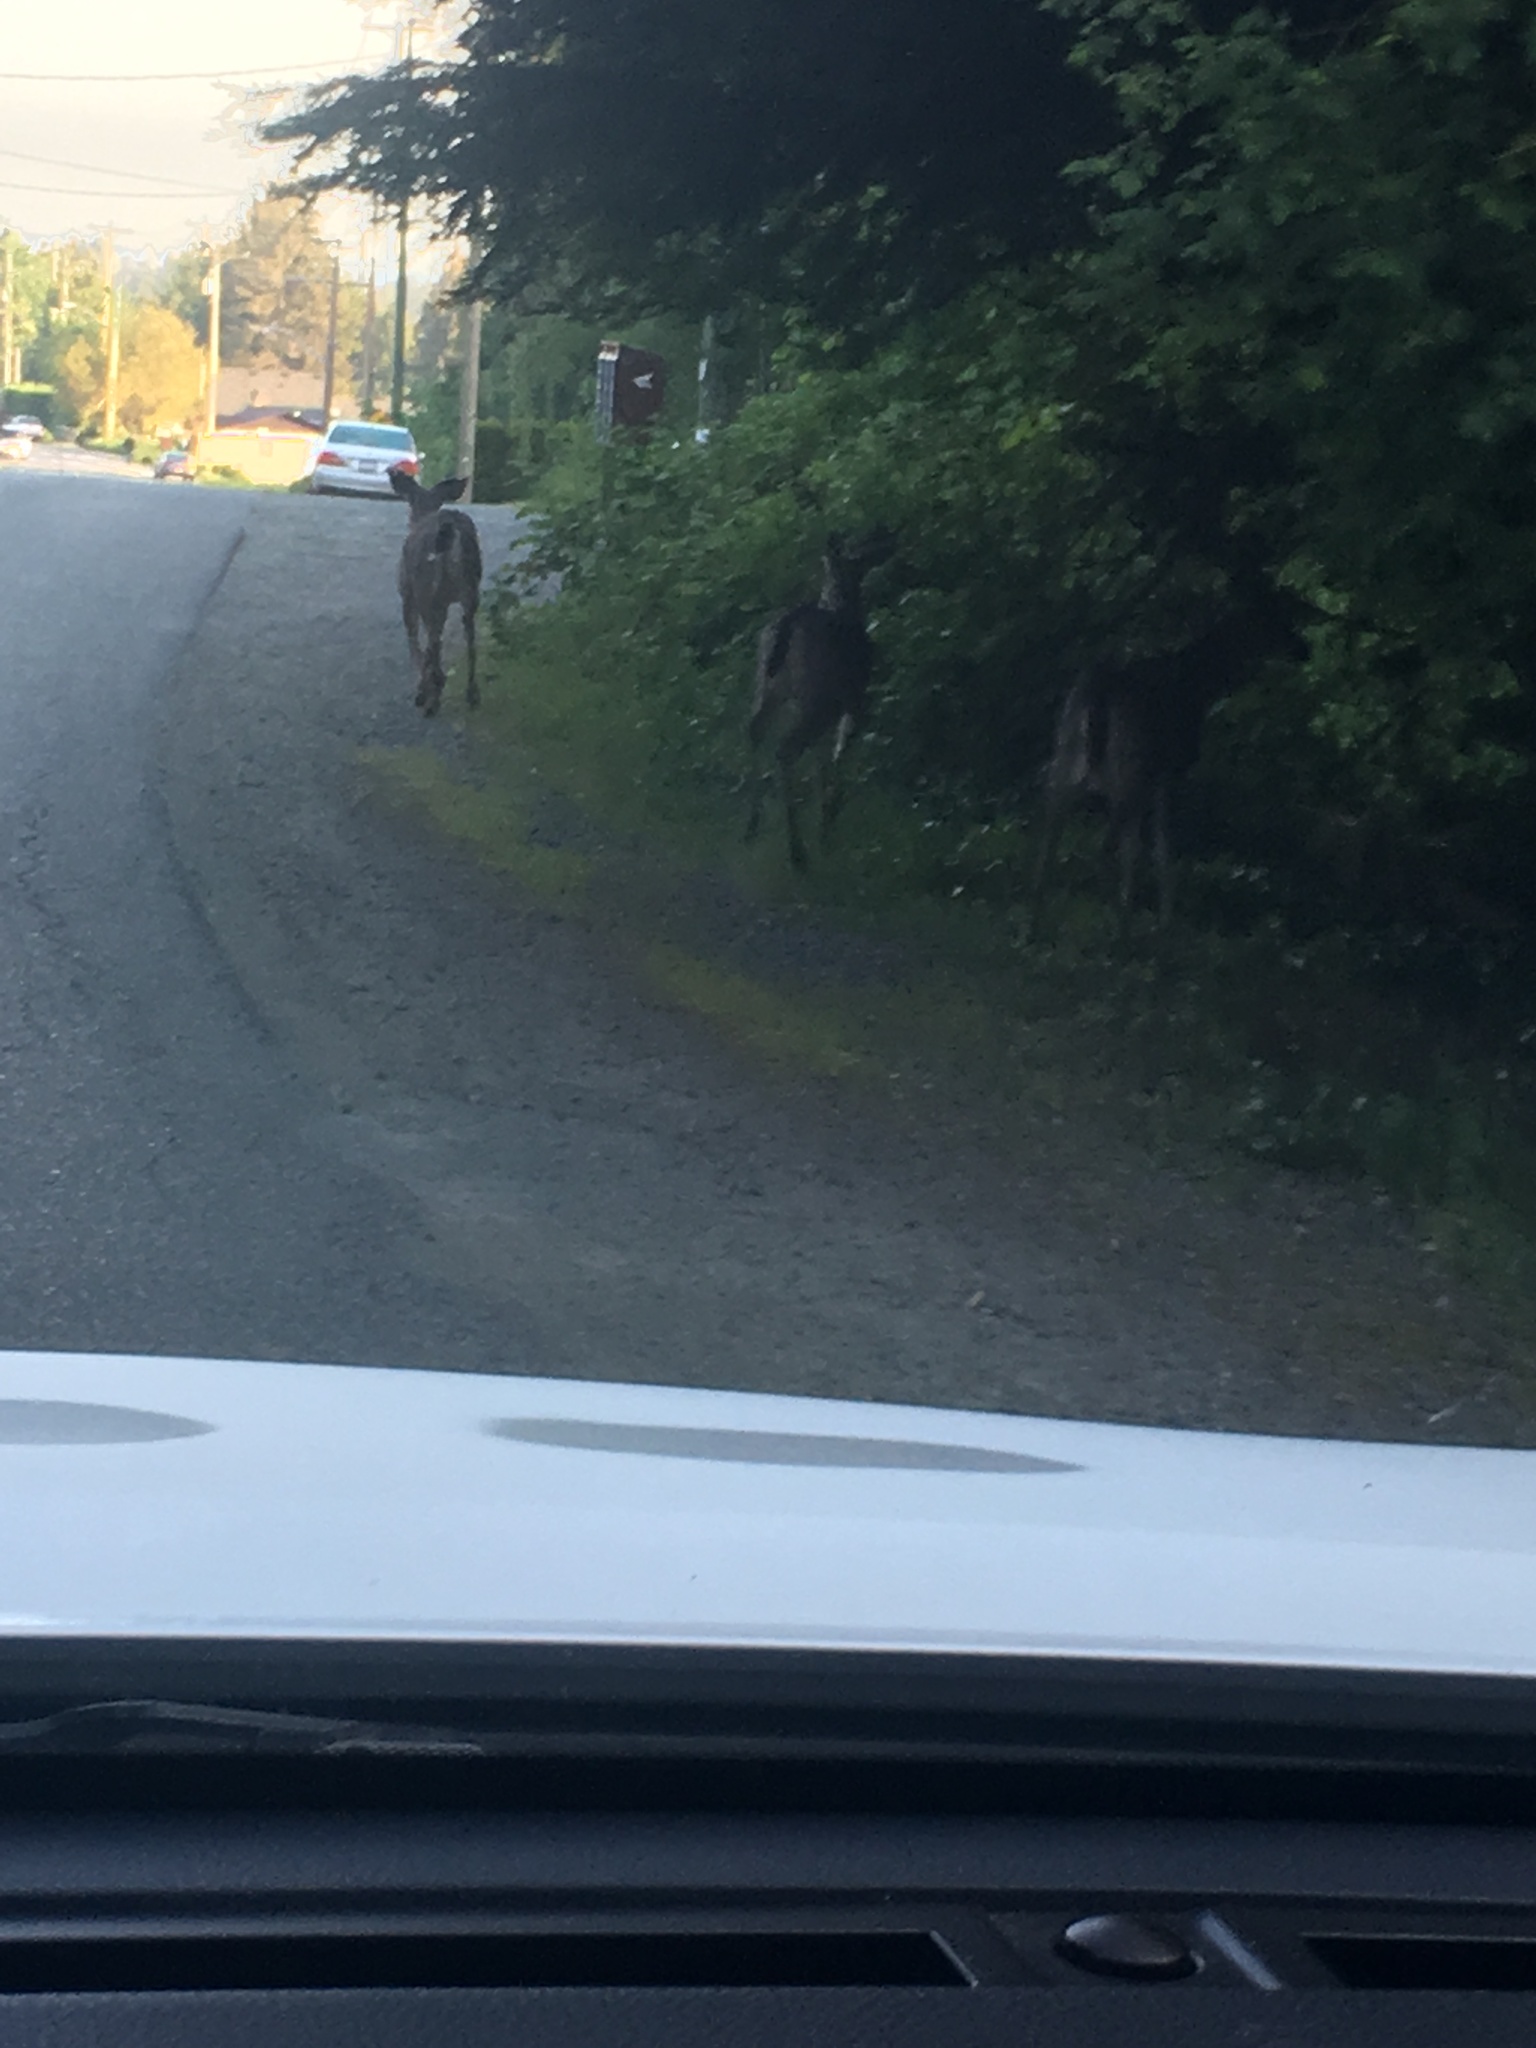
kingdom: Animalia
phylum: Chordata
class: Mammalia
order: Artiodactyla
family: Cervidae
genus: Odocoileus
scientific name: Odocoileus hemionus
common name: Mule deer
